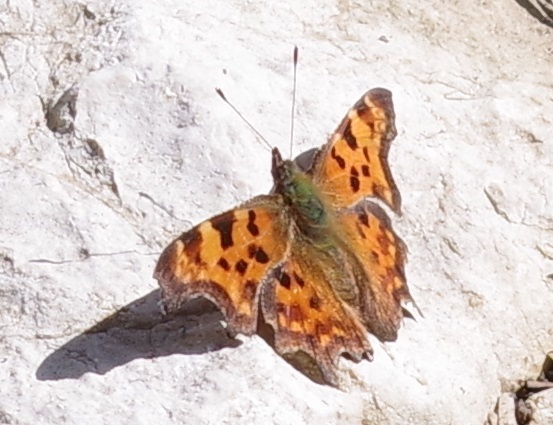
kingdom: Animalia
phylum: Arthropoda
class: Insecta
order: Lepidoptera
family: Nymphalidae
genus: Polygonia
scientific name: Polygonia c-album
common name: Comma
